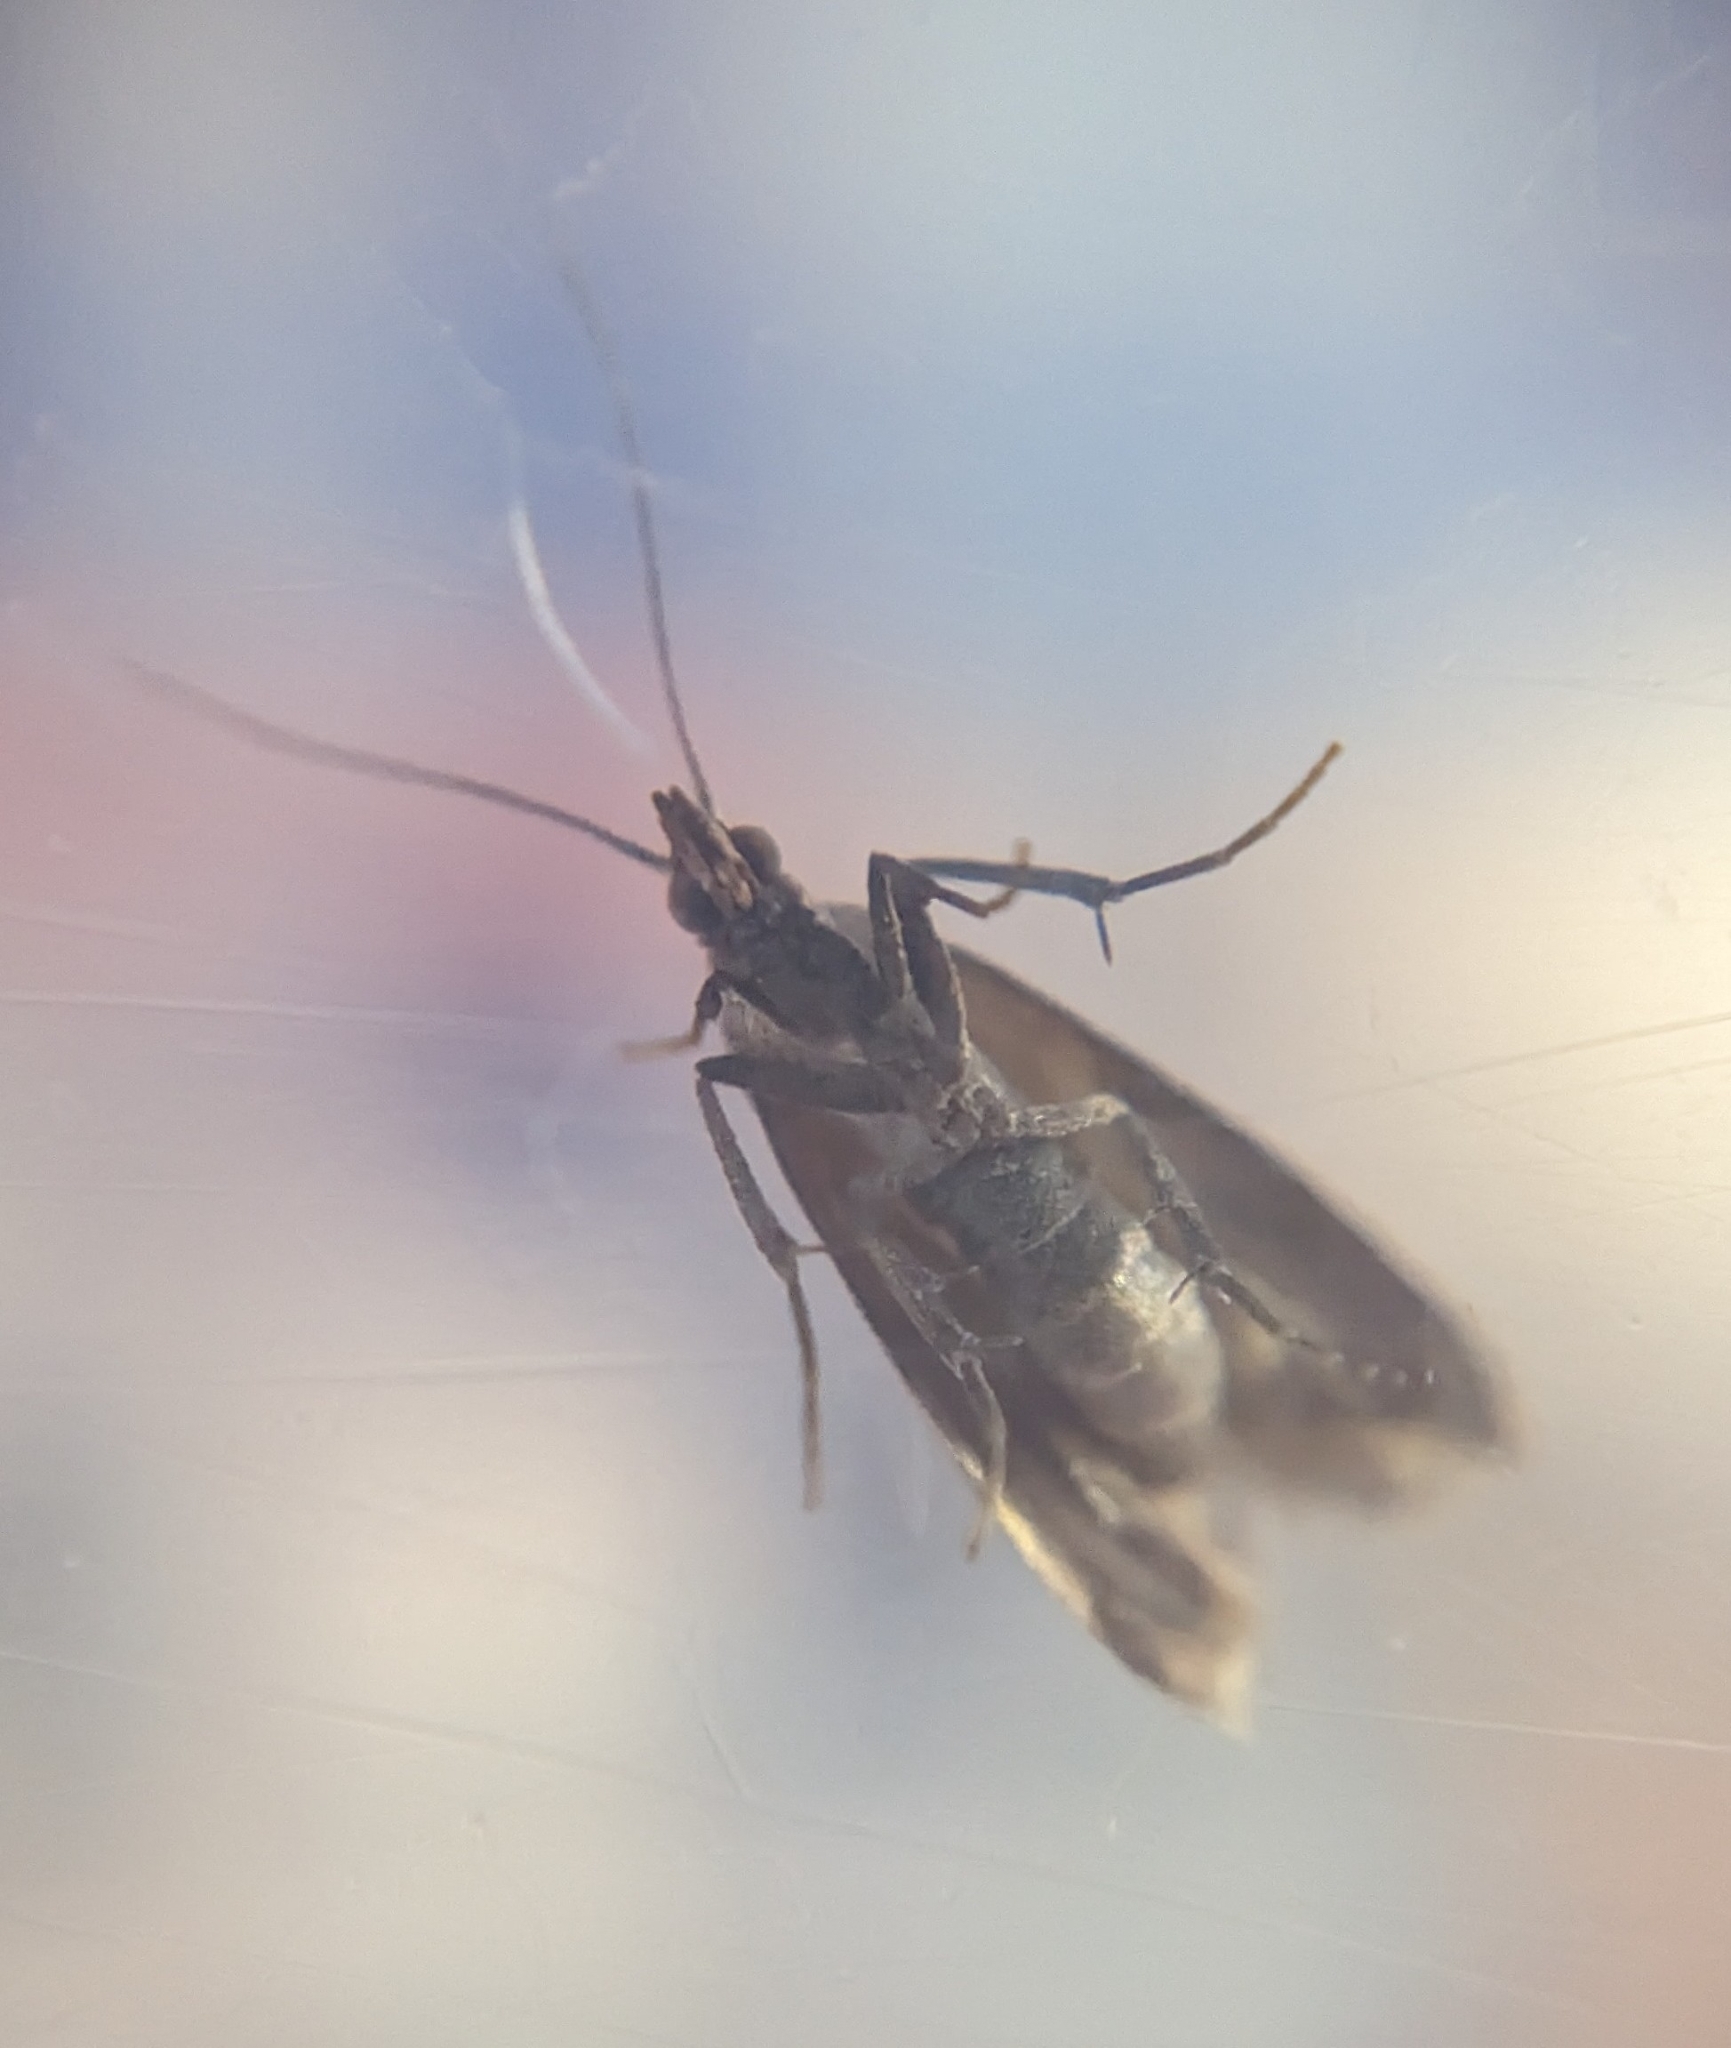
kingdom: Animalia
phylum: Arthropoda
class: Insecta
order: Lepidoptera
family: Pyralidae
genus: Plodia
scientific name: Plodia interpunctella
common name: Indian meal moth
